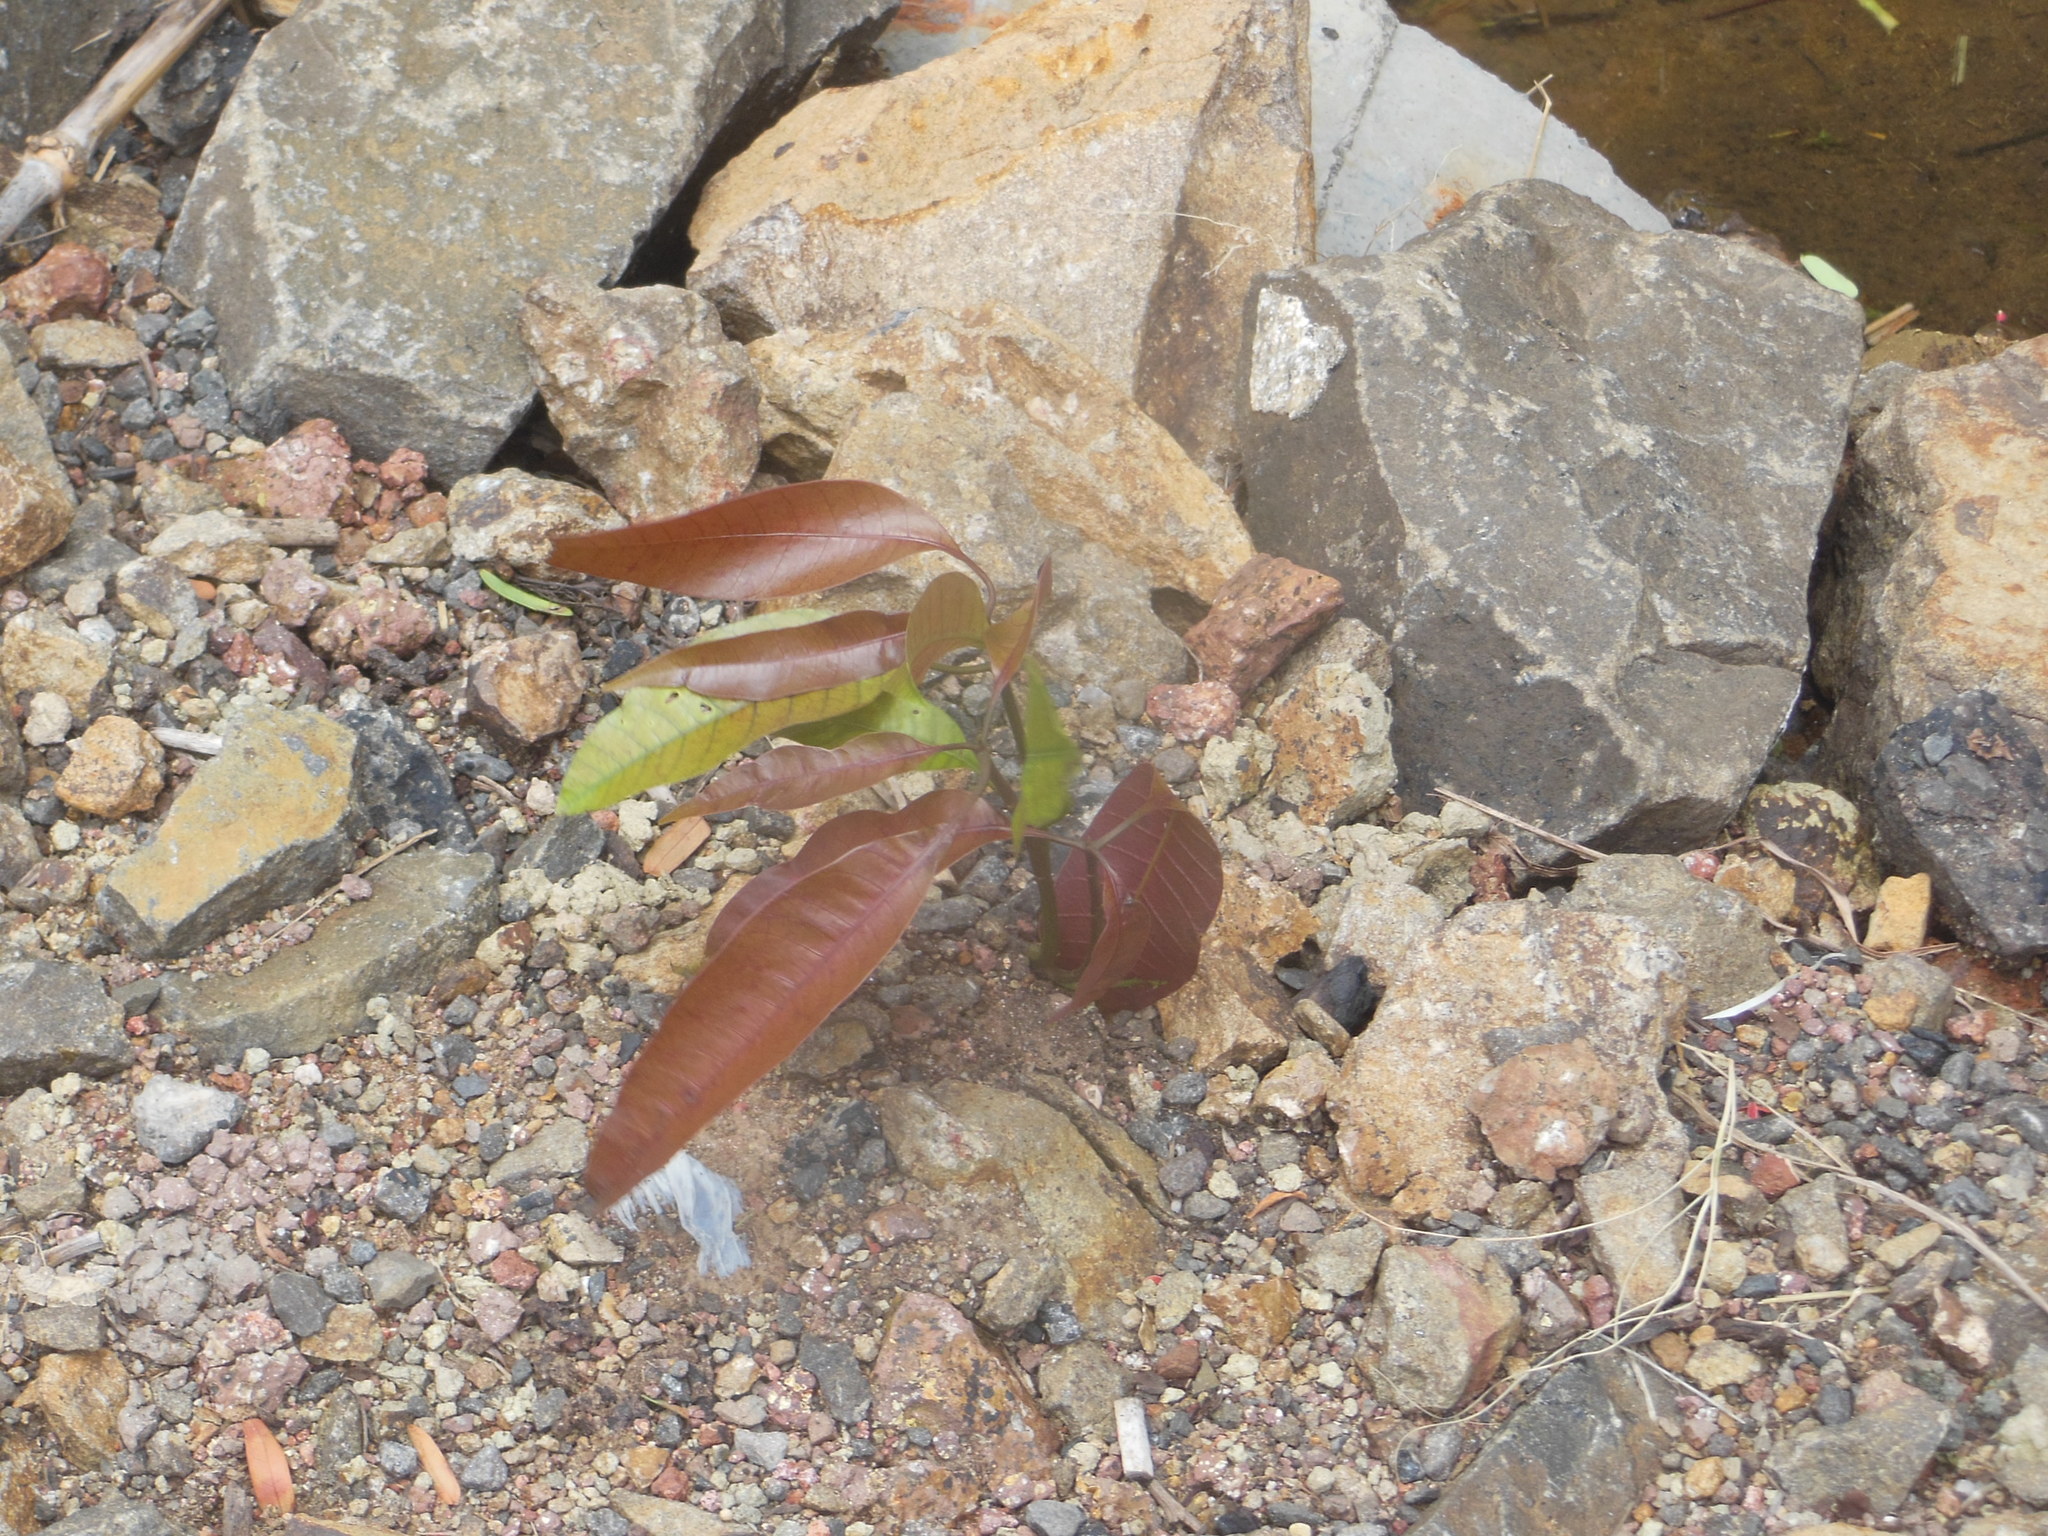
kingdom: Plantae
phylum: Tracheophyta
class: Magnoliopsida
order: Sapindales
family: Anacardiaceae
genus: Mangifera
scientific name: Mangifera indica
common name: Mango
